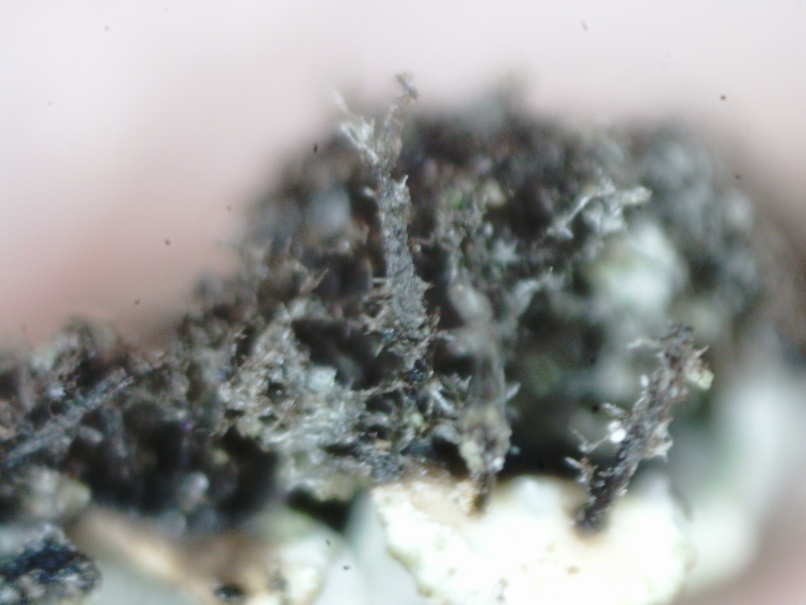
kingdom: Fungi
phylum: Ascomycota
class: Lecanoromycetes
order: Caliciales
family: Physciaceae
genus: Physconia
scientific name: Physconia enteroxantha
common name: Yellow-edged frost lichen
